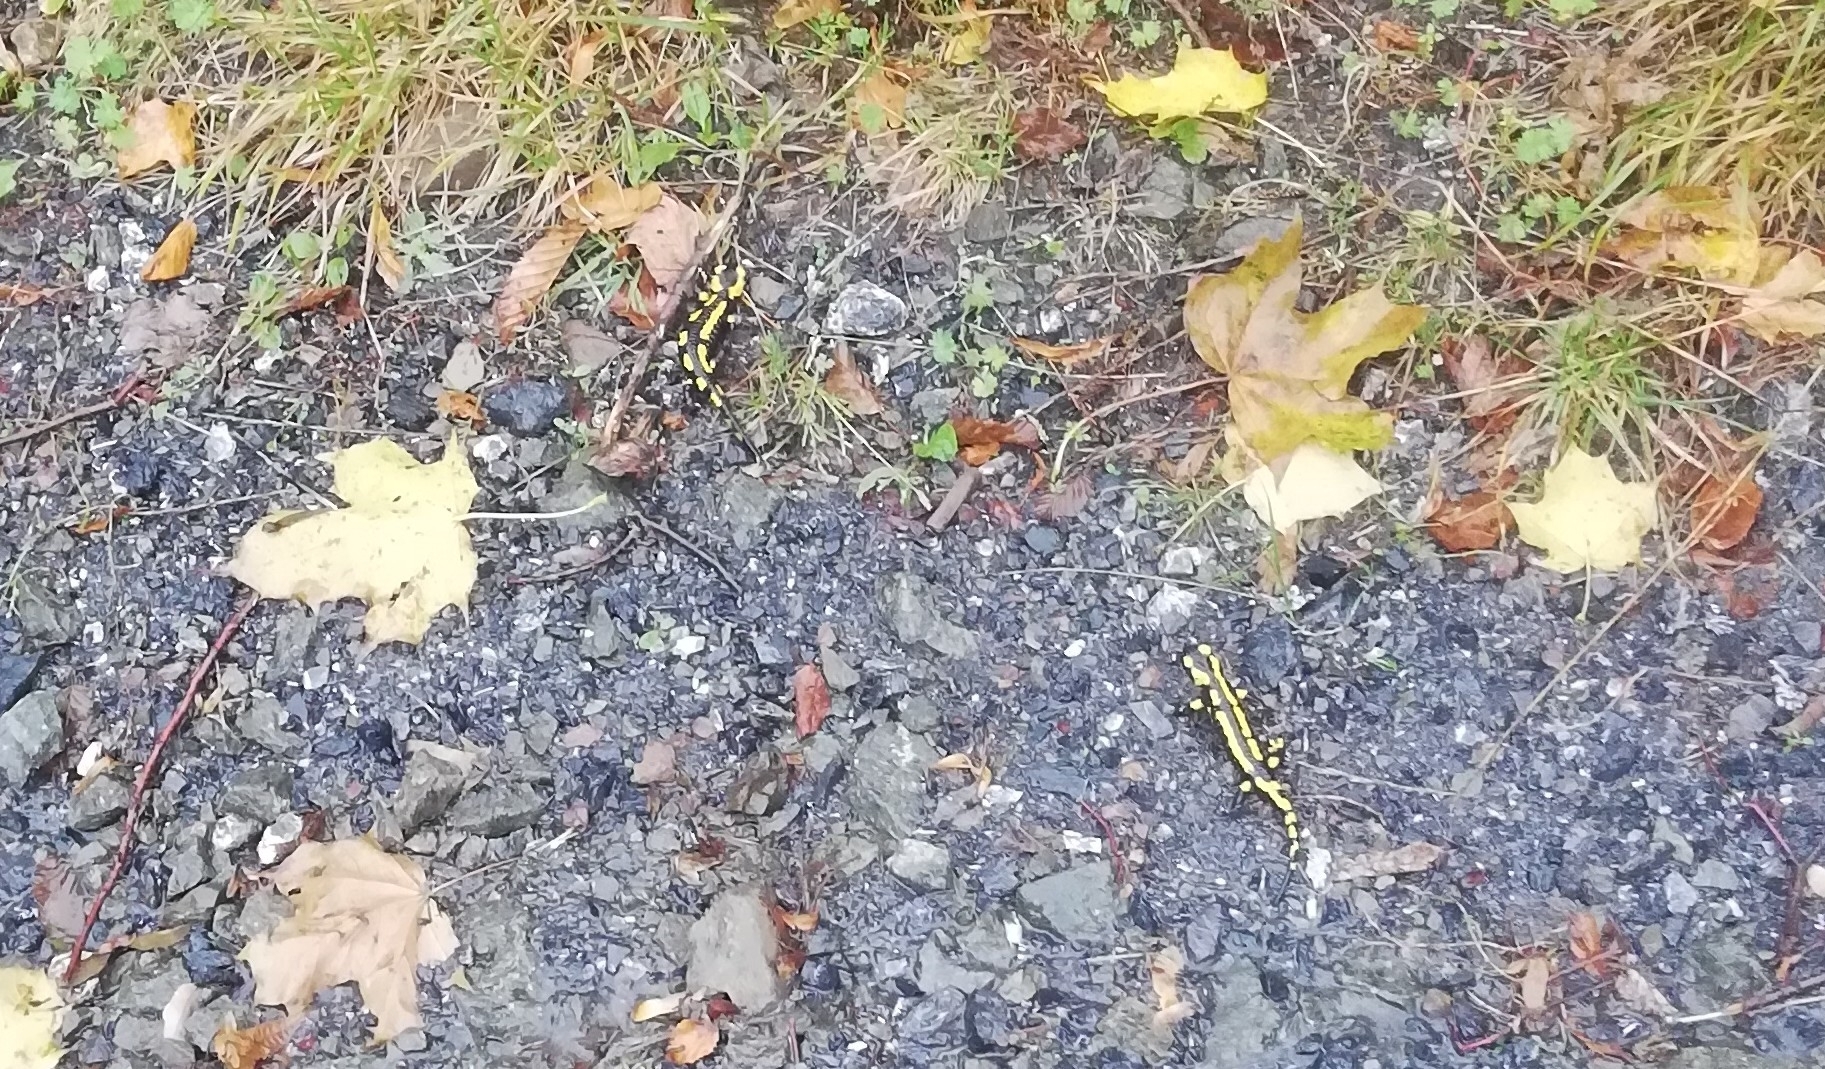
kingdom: Animalia
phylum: Chordata
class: Amphibia
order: Caudata
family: Salamandridae
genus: Salamandra
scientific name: Salamandra salamandra
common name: Fire salamander
